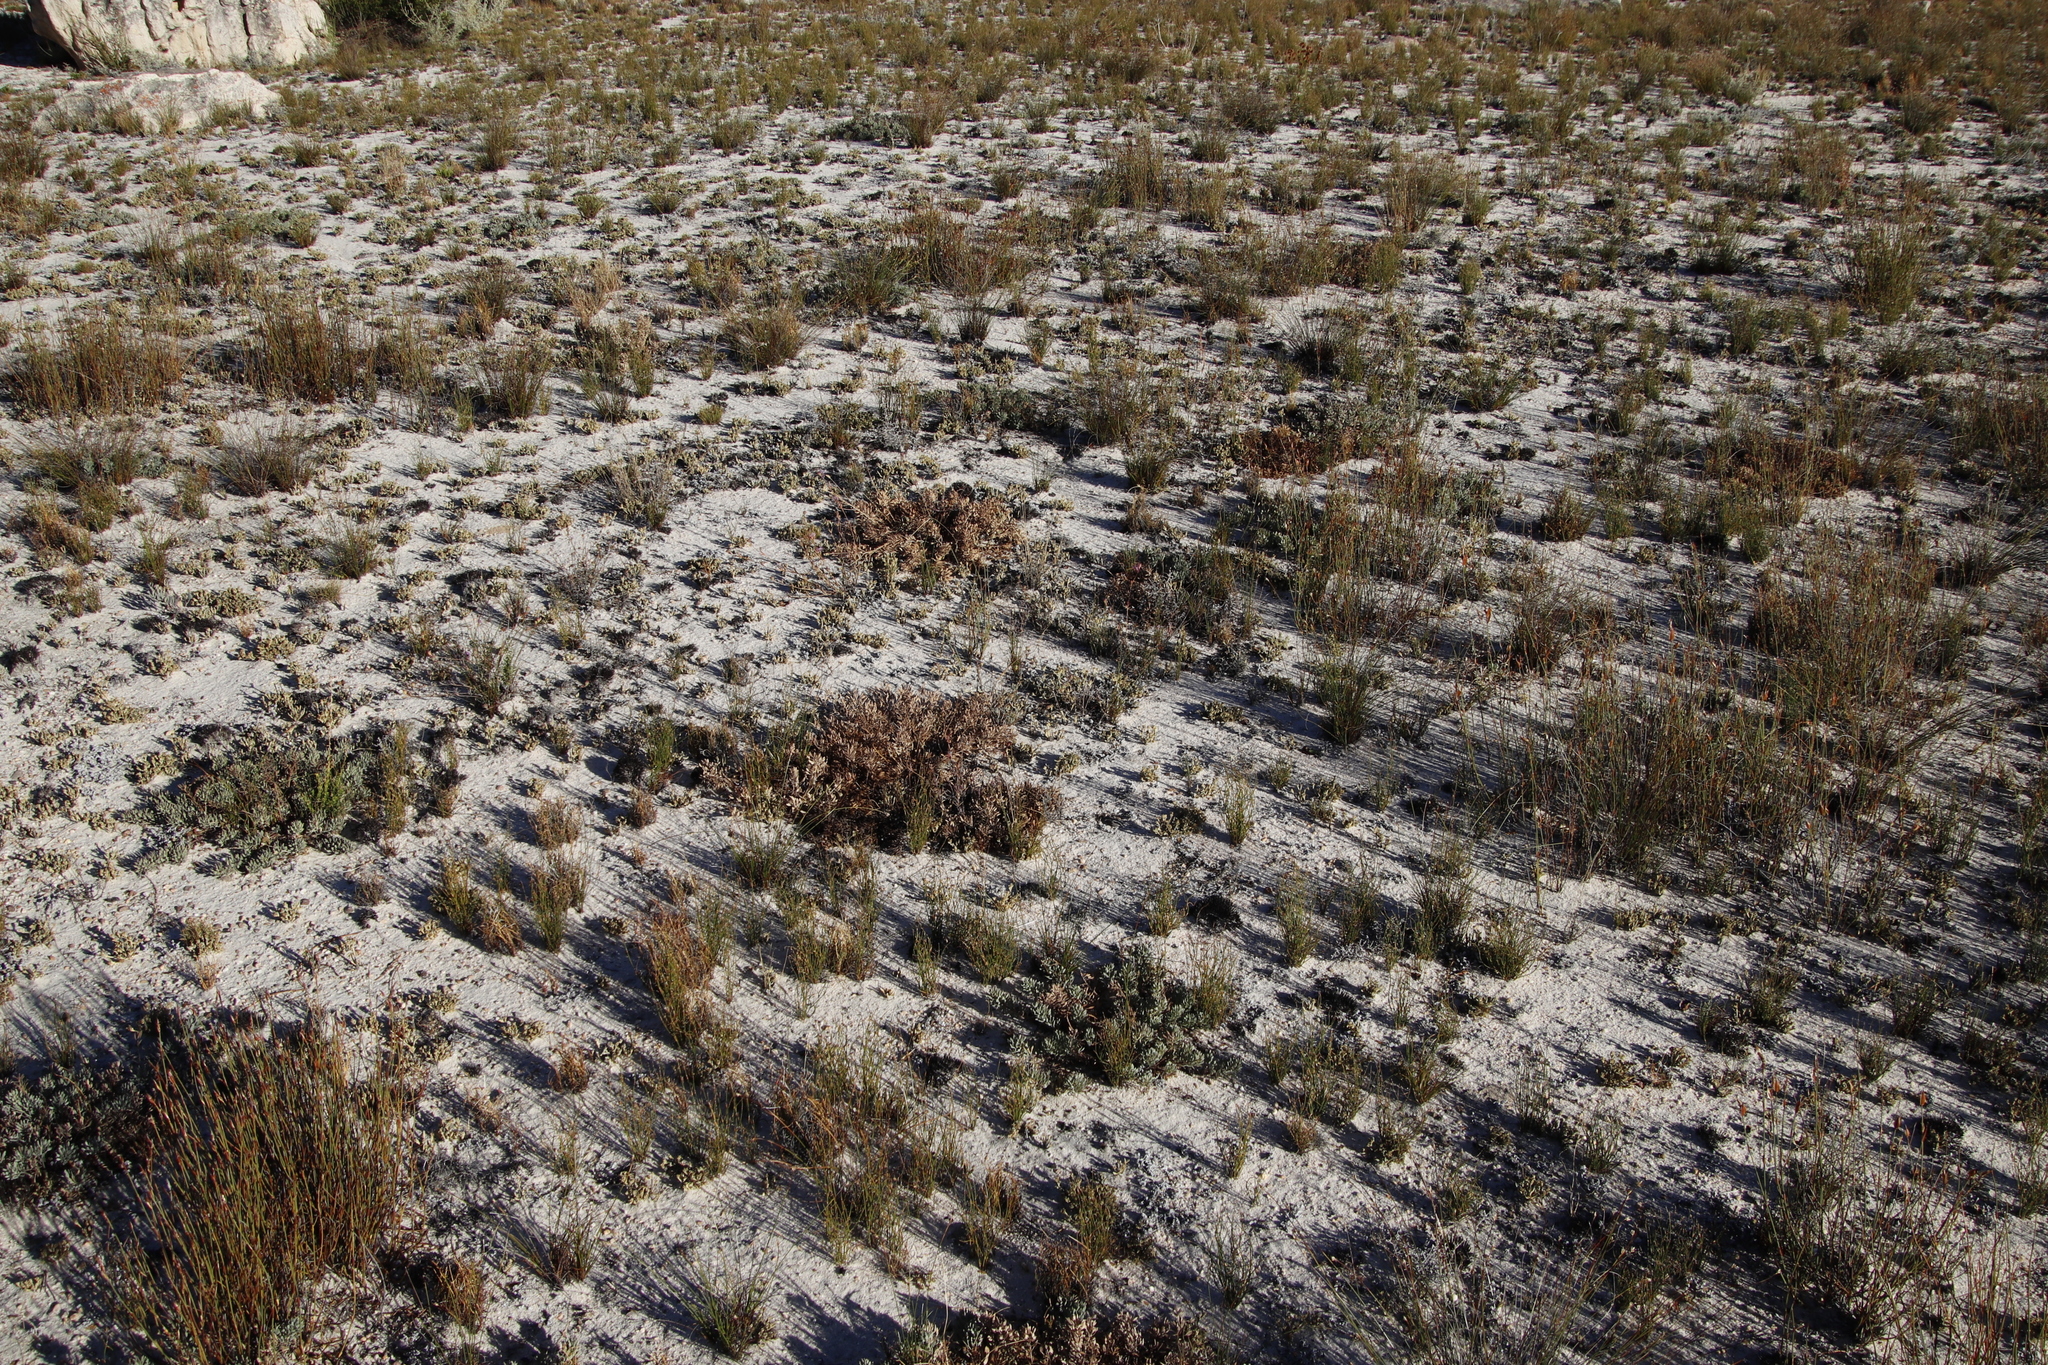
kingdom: Plantae
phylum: Tracheophyta
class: Magnoliopsida
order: Proteales
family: Proteaceae
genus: Leucadendron
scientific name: Leucadendron glaberrimum
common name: Common oily conebush
